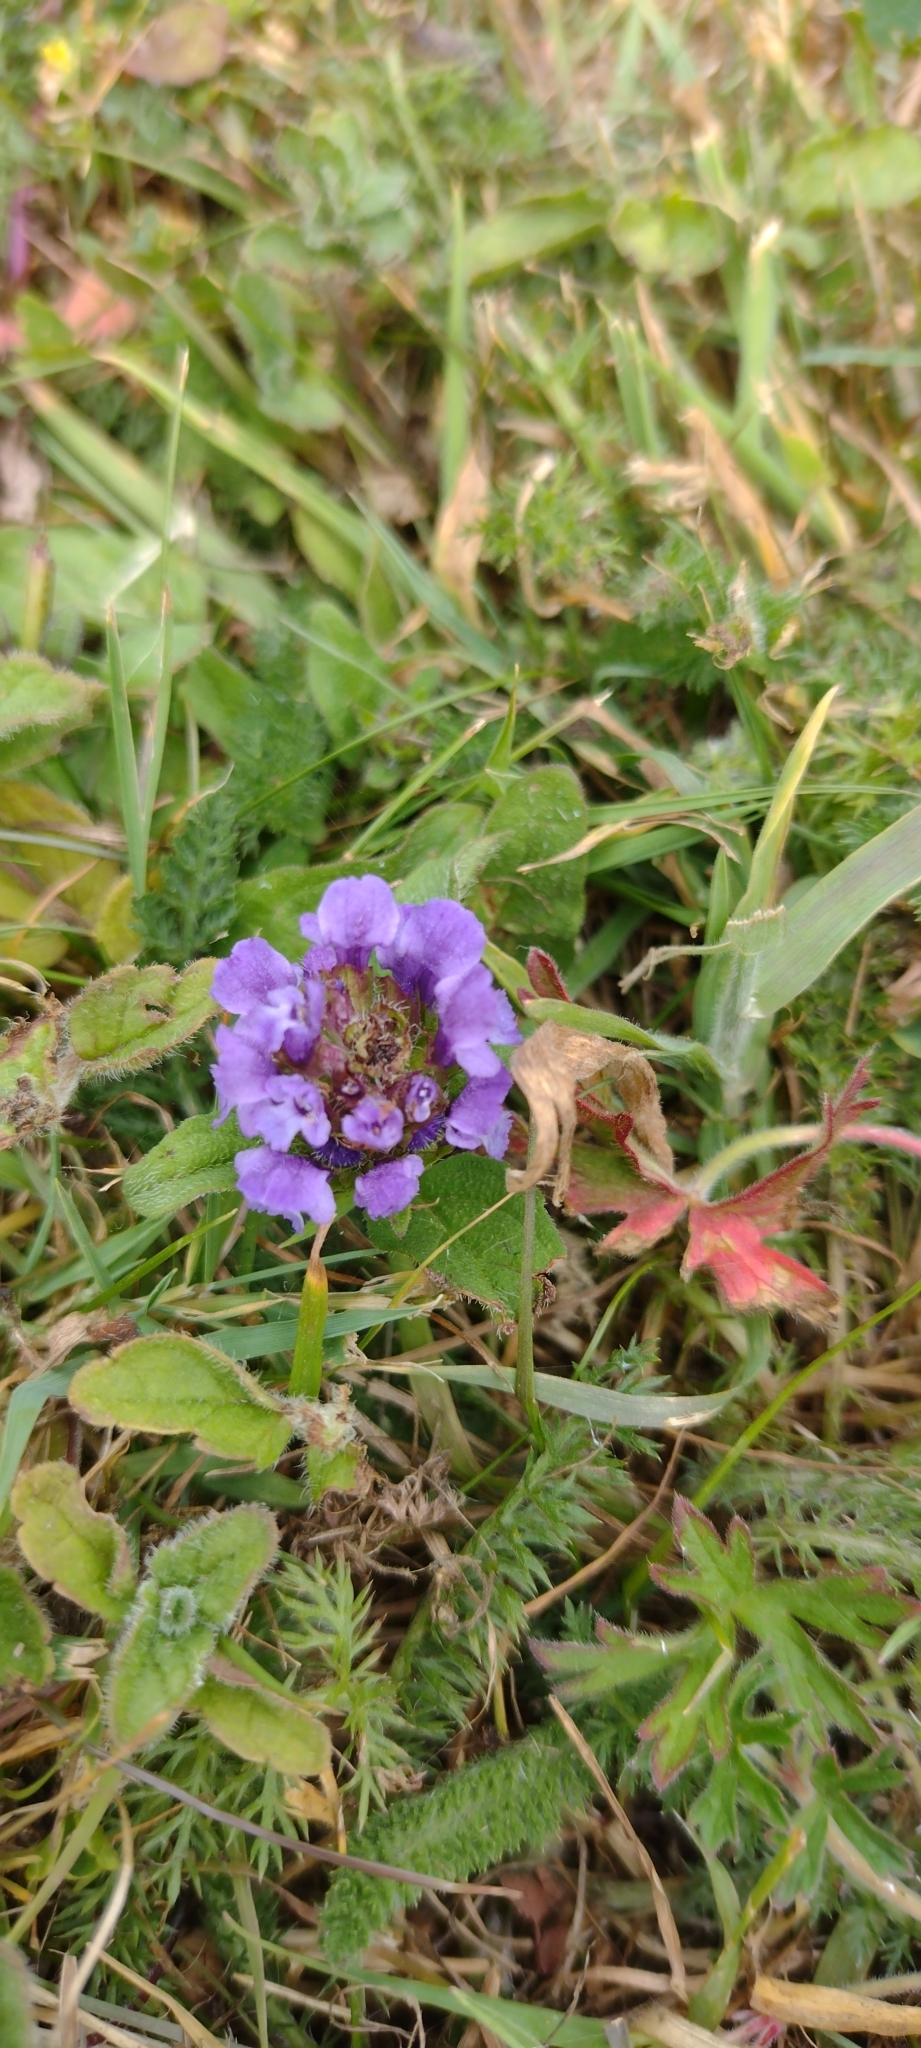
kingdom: Plantae
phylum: Tracheophyta
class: Magnoliopsida
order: Lamiales
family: Lamiaceae
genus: Prunella
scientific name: Prunella vulgaris
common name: Heal-all
